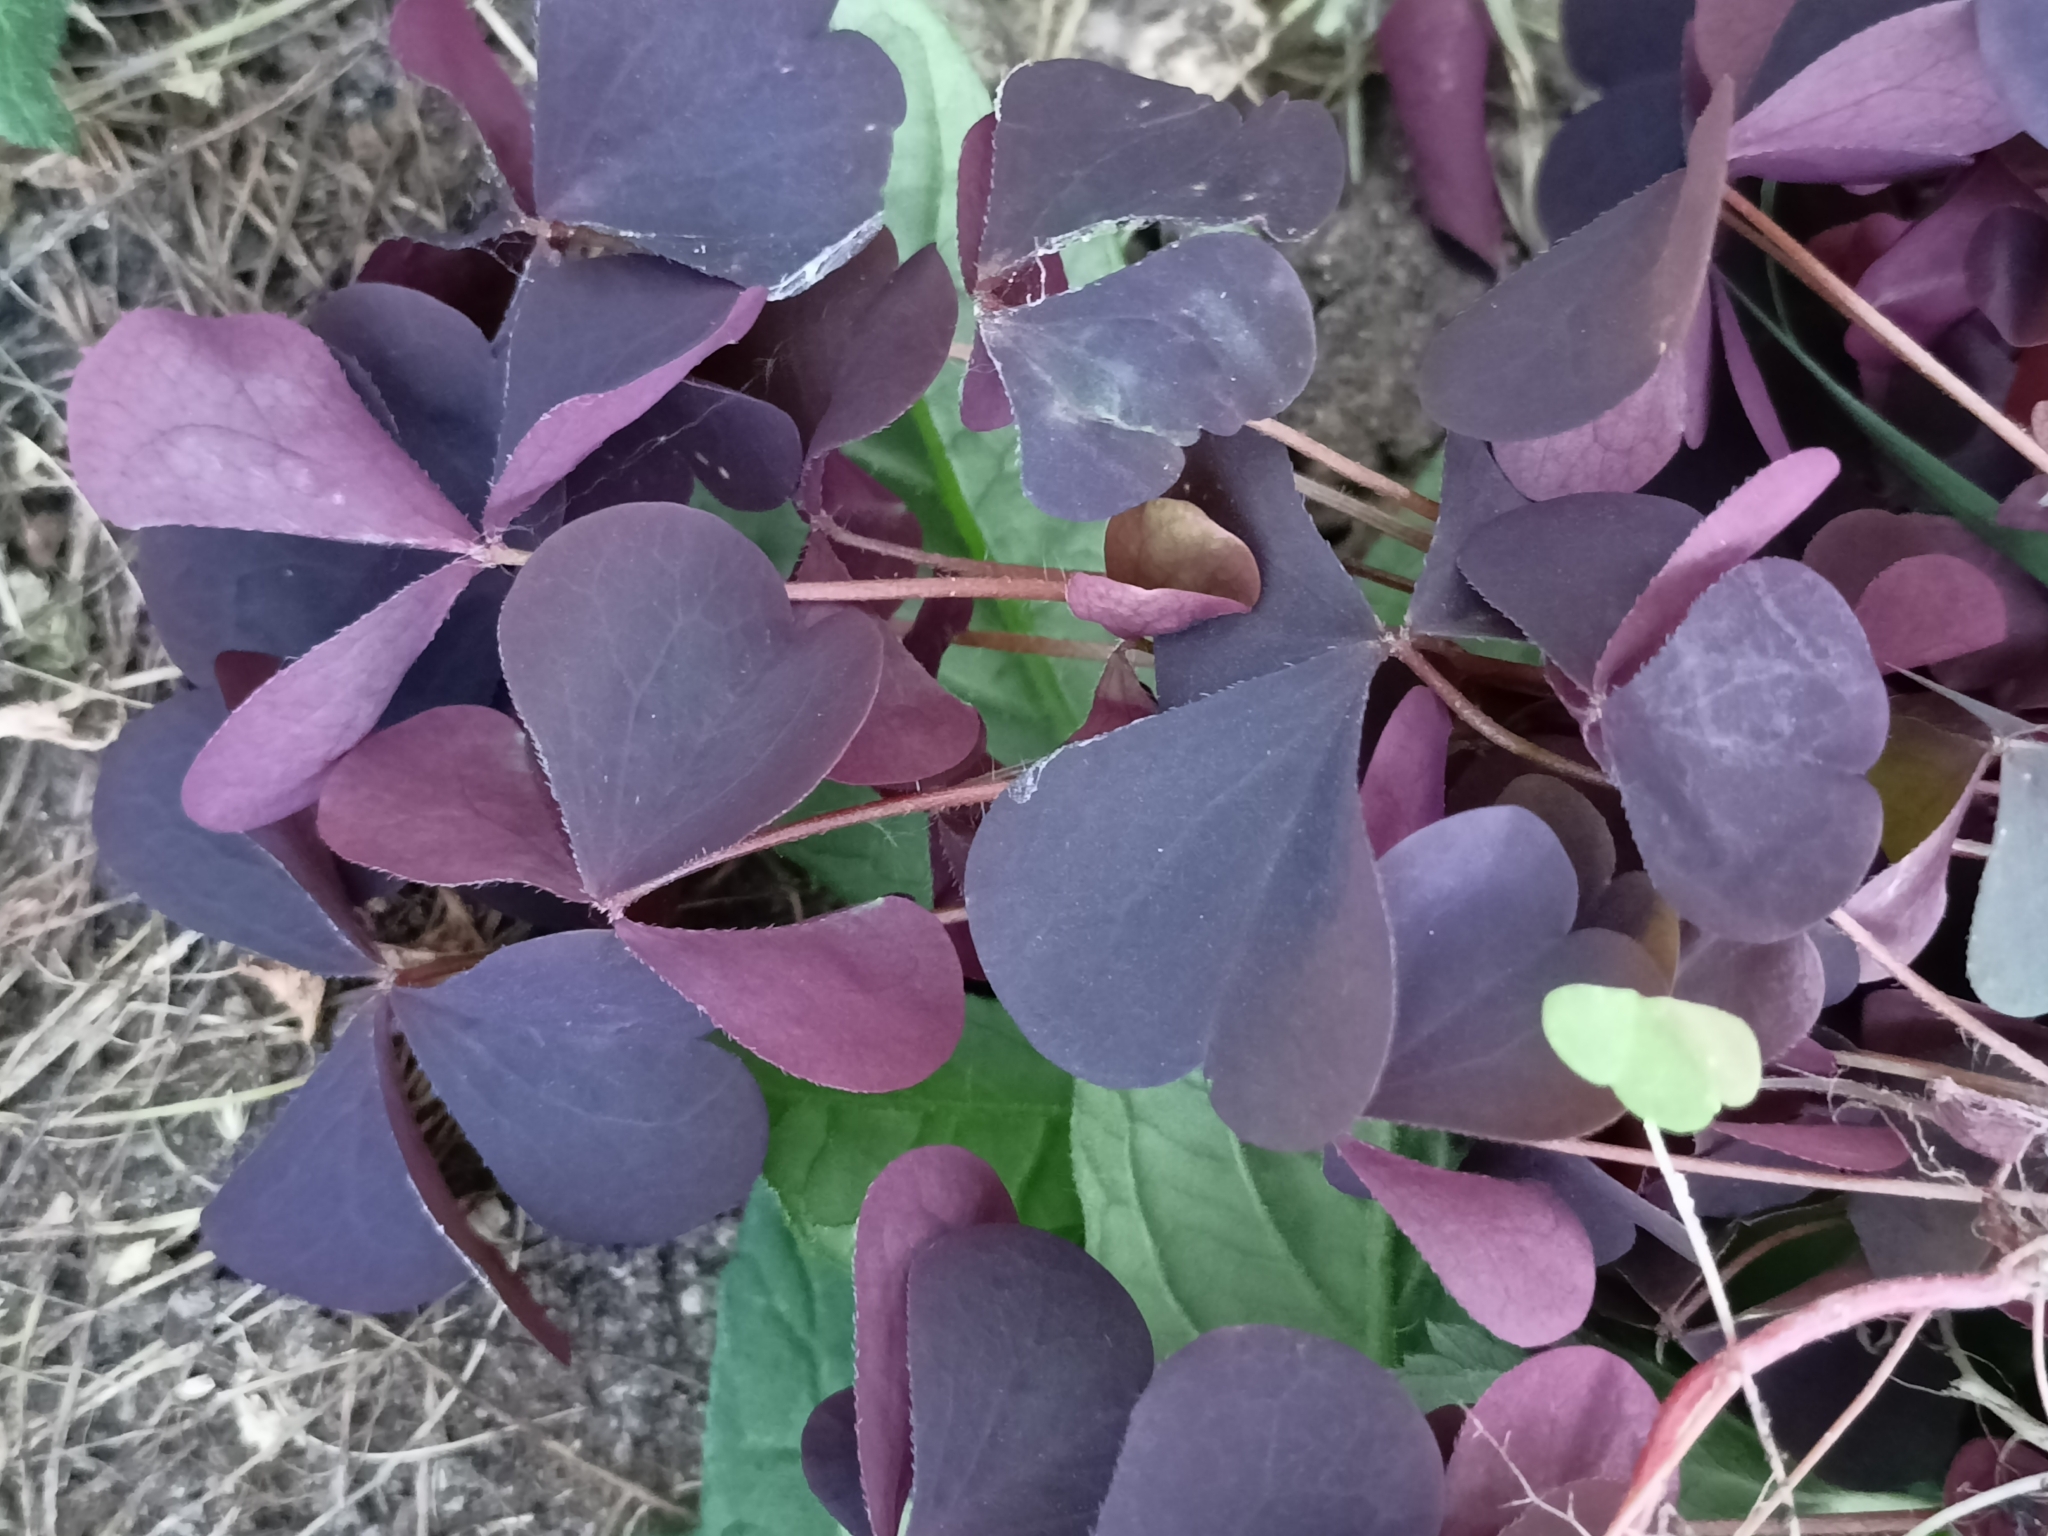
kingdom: Plantae
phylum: Tracheophyta
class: Magnoliopsida
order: Oxalidales
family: Oxalidaceae
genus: Oxalis
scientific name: Oxalis stricta
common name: Upright yellow-sorrel
